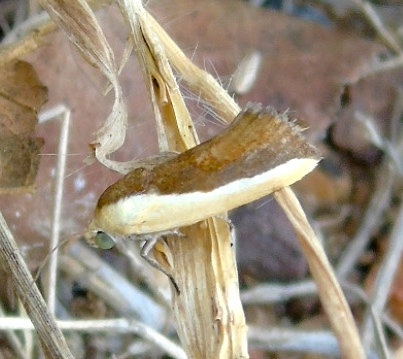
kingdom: Animalia
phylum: Arthropoda
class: Insecta
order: Lepidoptera
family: Noctuidae
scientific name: Noctuidae
